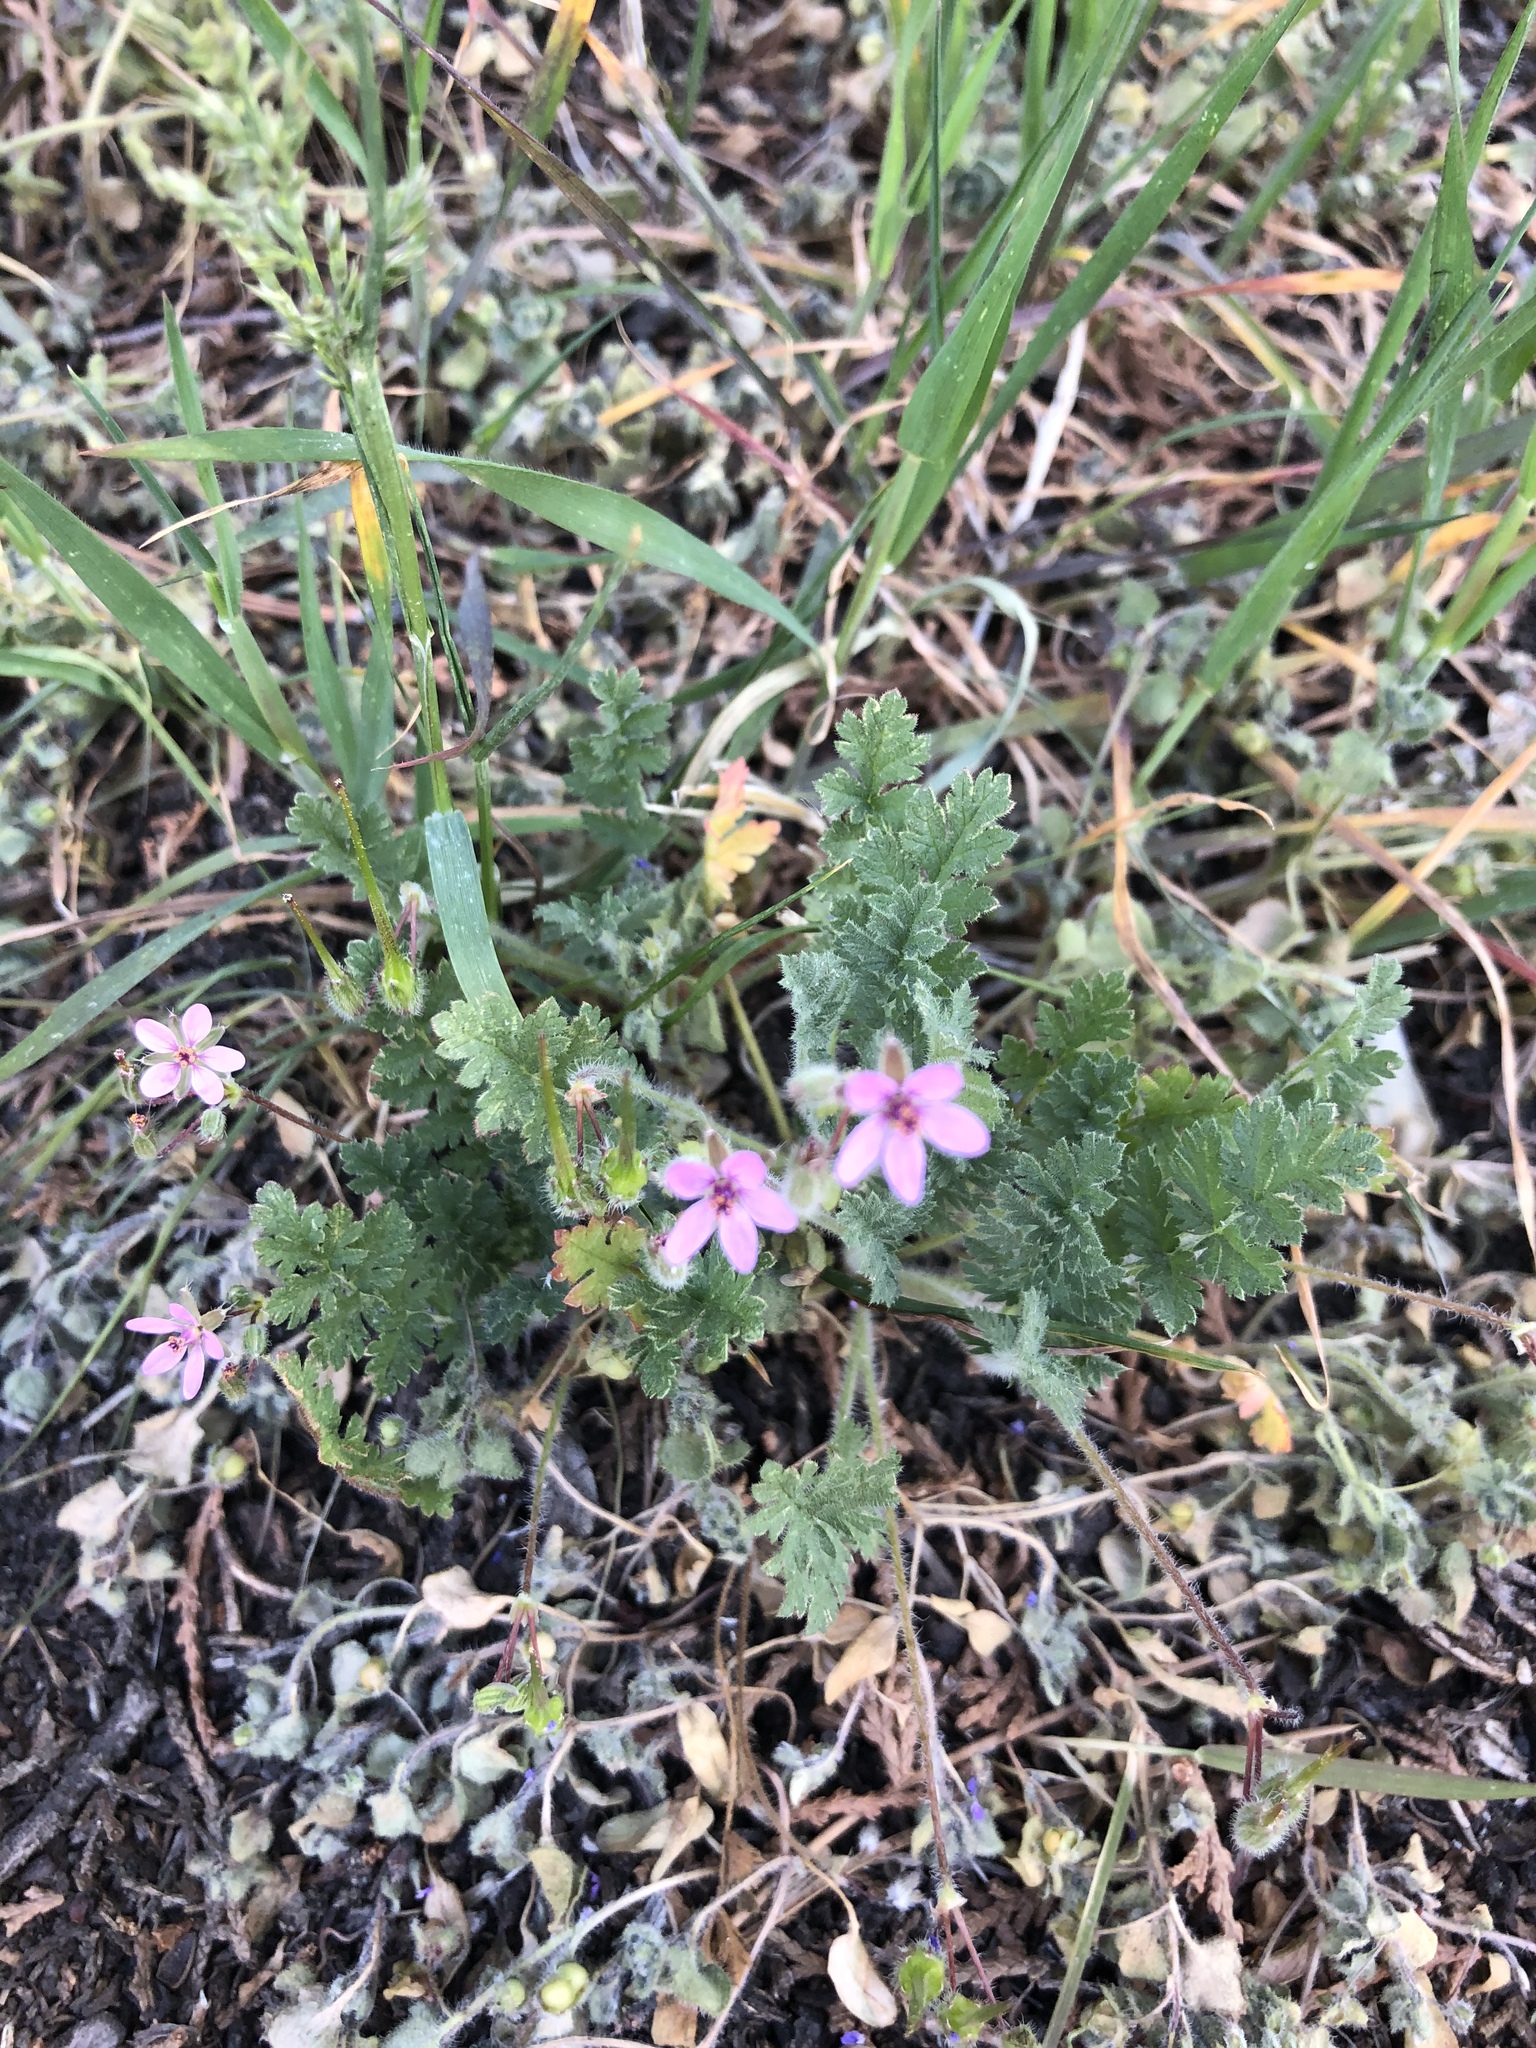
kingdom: Plantae
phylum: Tracheophyta
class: Magnoliopsida
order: Geraniales
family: Geraniaceae
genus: Erodium
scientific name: Erodium cicutarium
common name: Common stork's-bill
